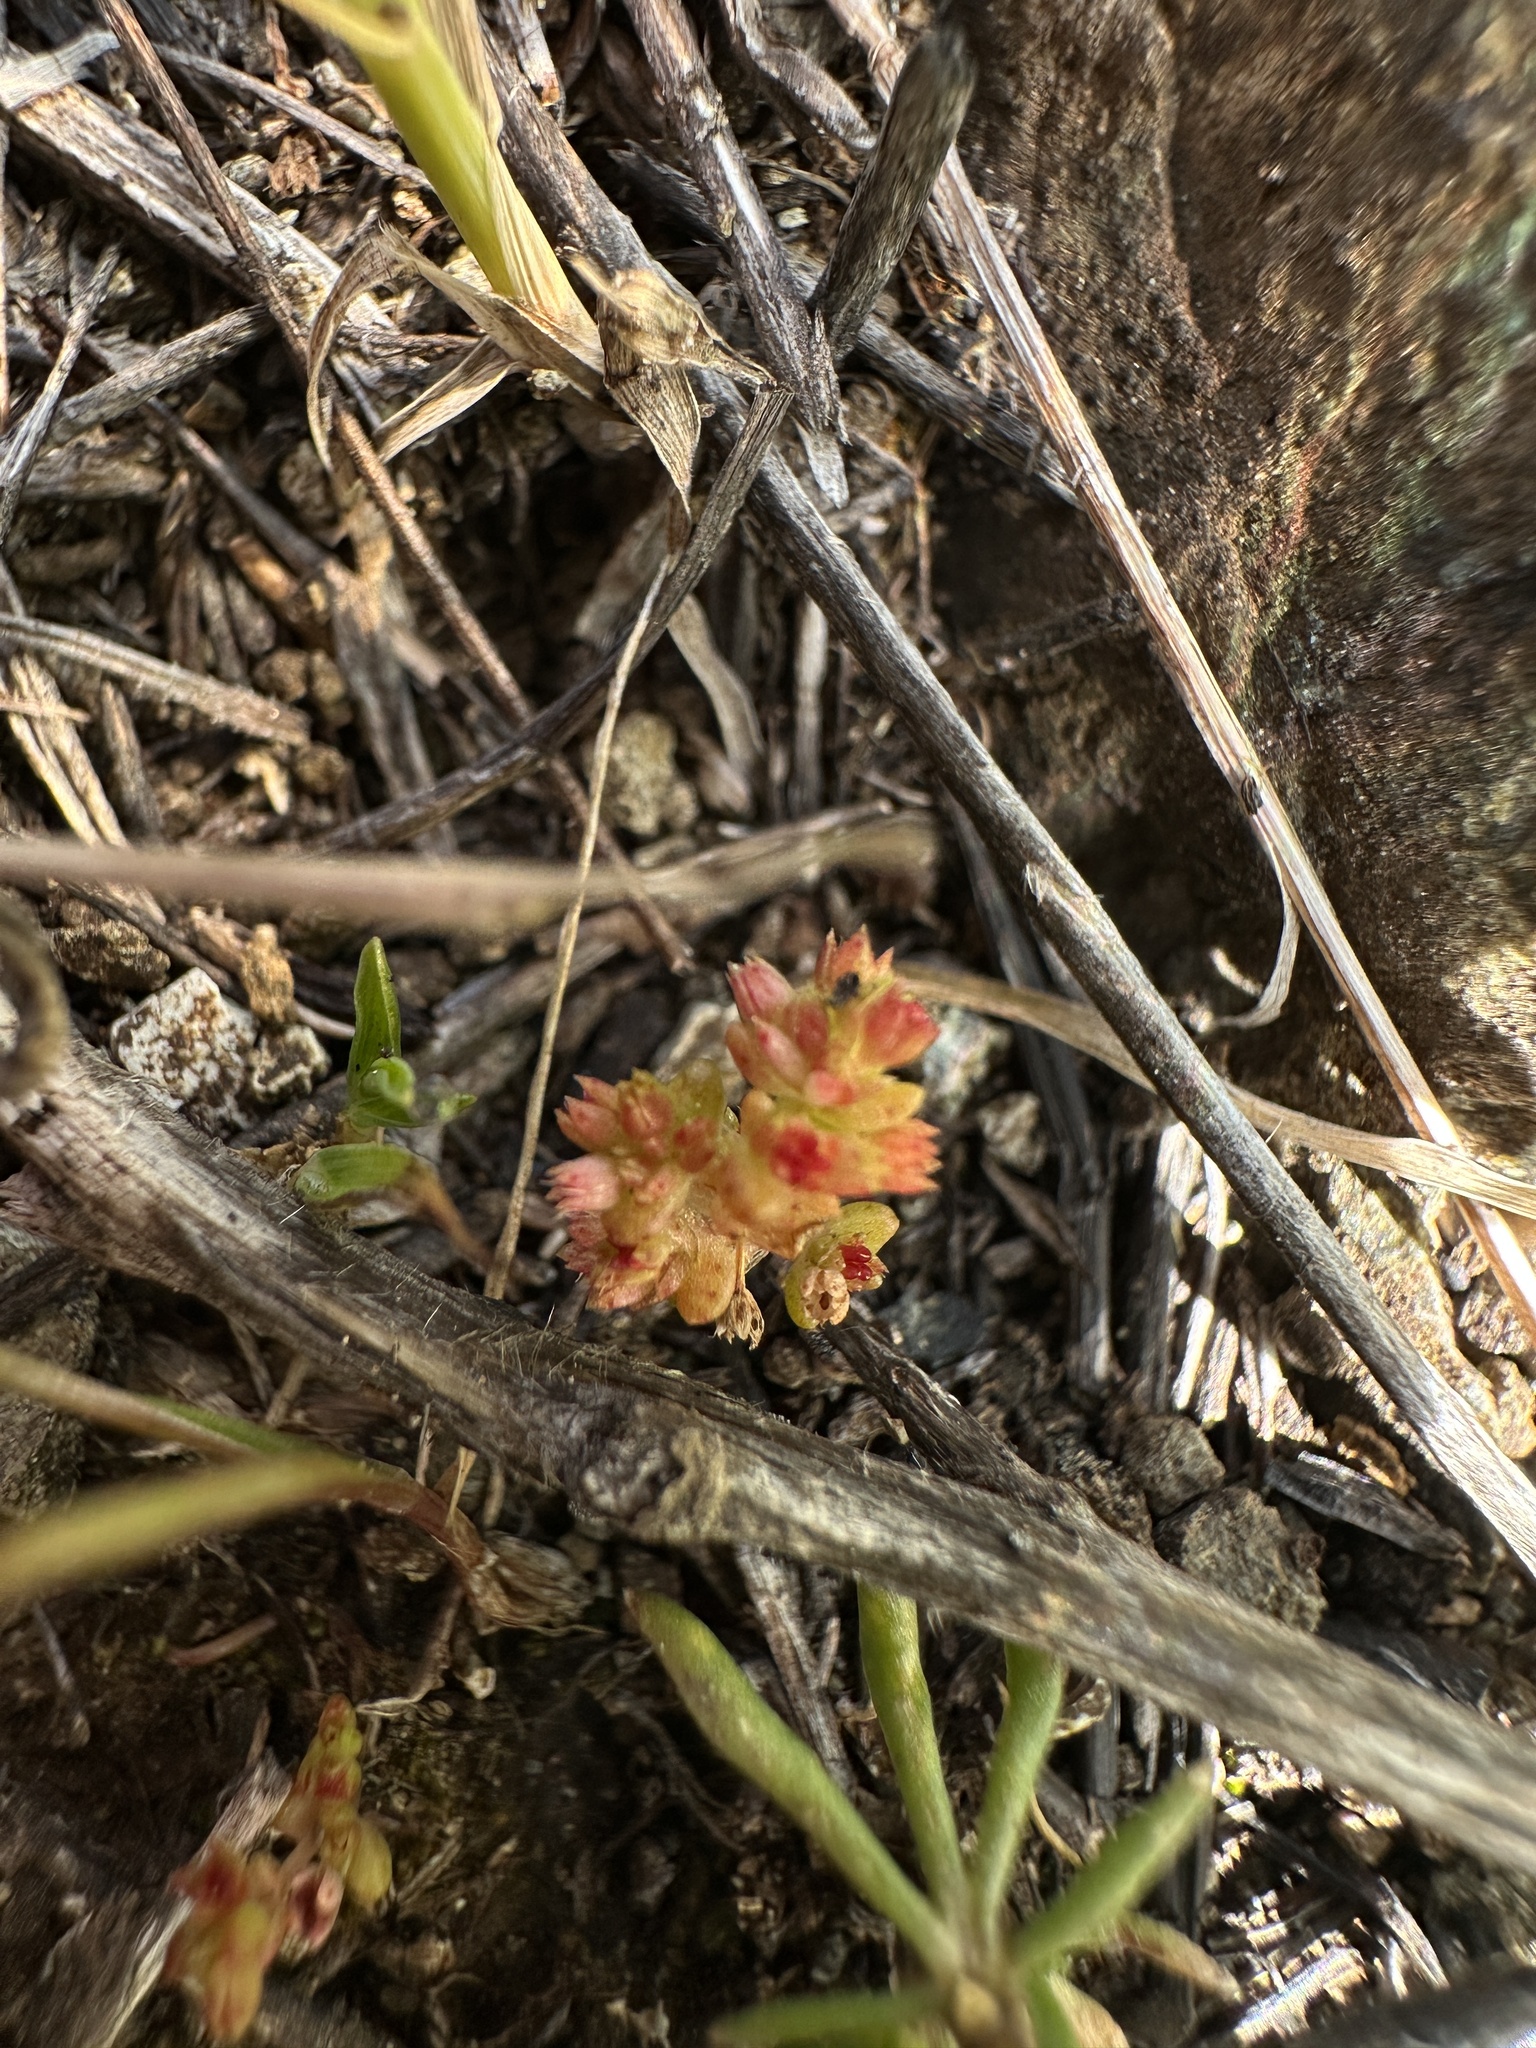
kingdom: Plantae
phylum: Tracheophyta
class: Magnoliopsida
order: Saxifragales
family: Crassulaceae
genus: Crassula
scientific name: Crassula connata
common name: Erect pygmyweed
